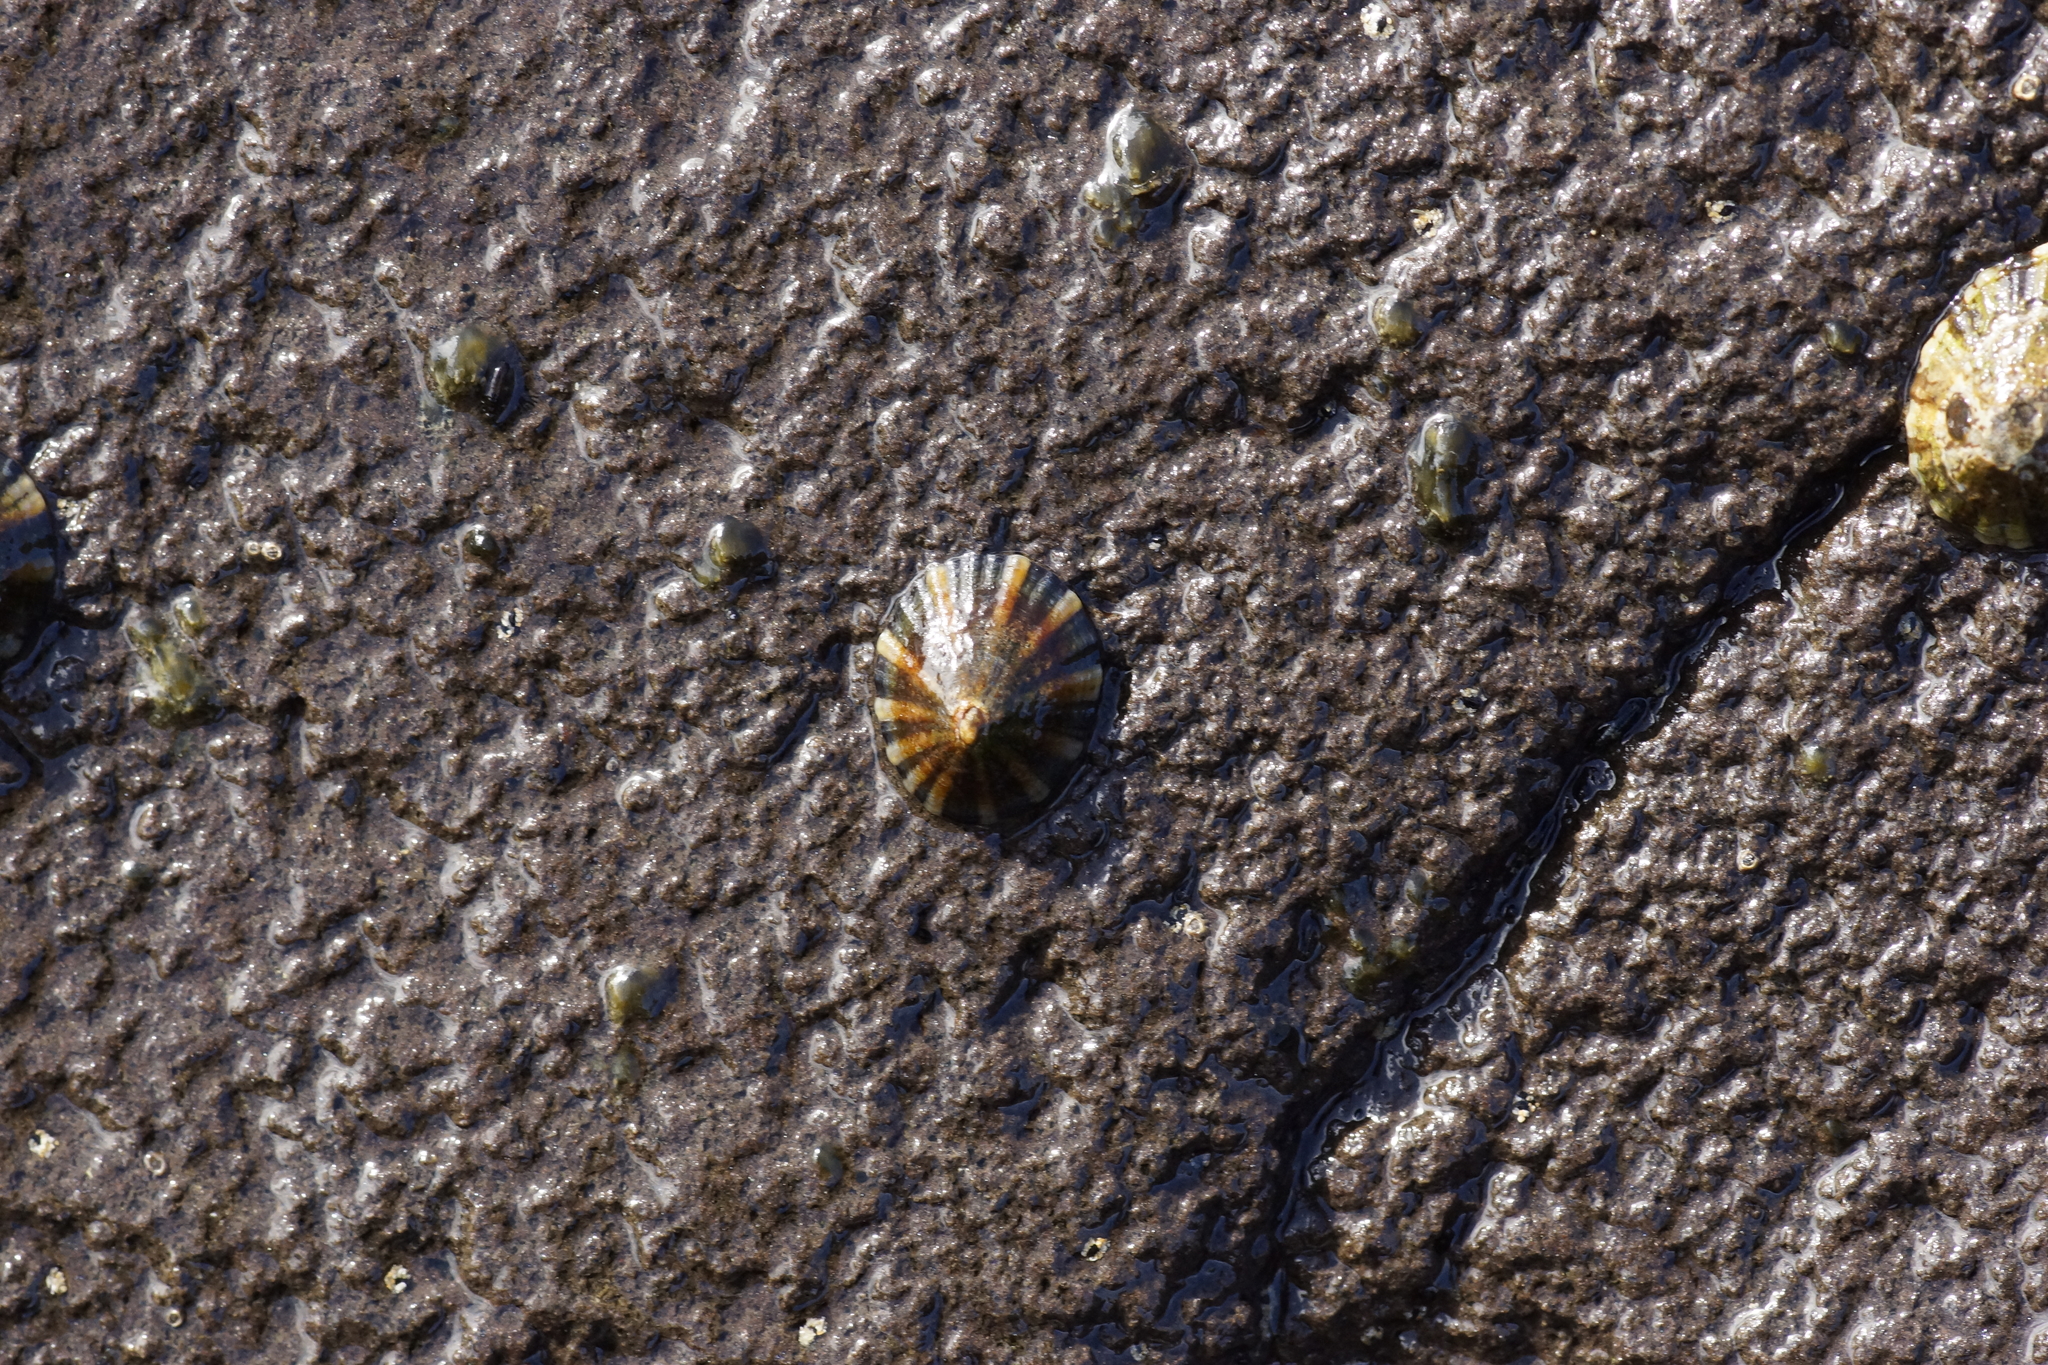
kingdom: Animalia
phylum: Mollusca
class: Gastropoda
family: Nacellidae
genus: Cellana
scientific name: Cellana tramoserica
